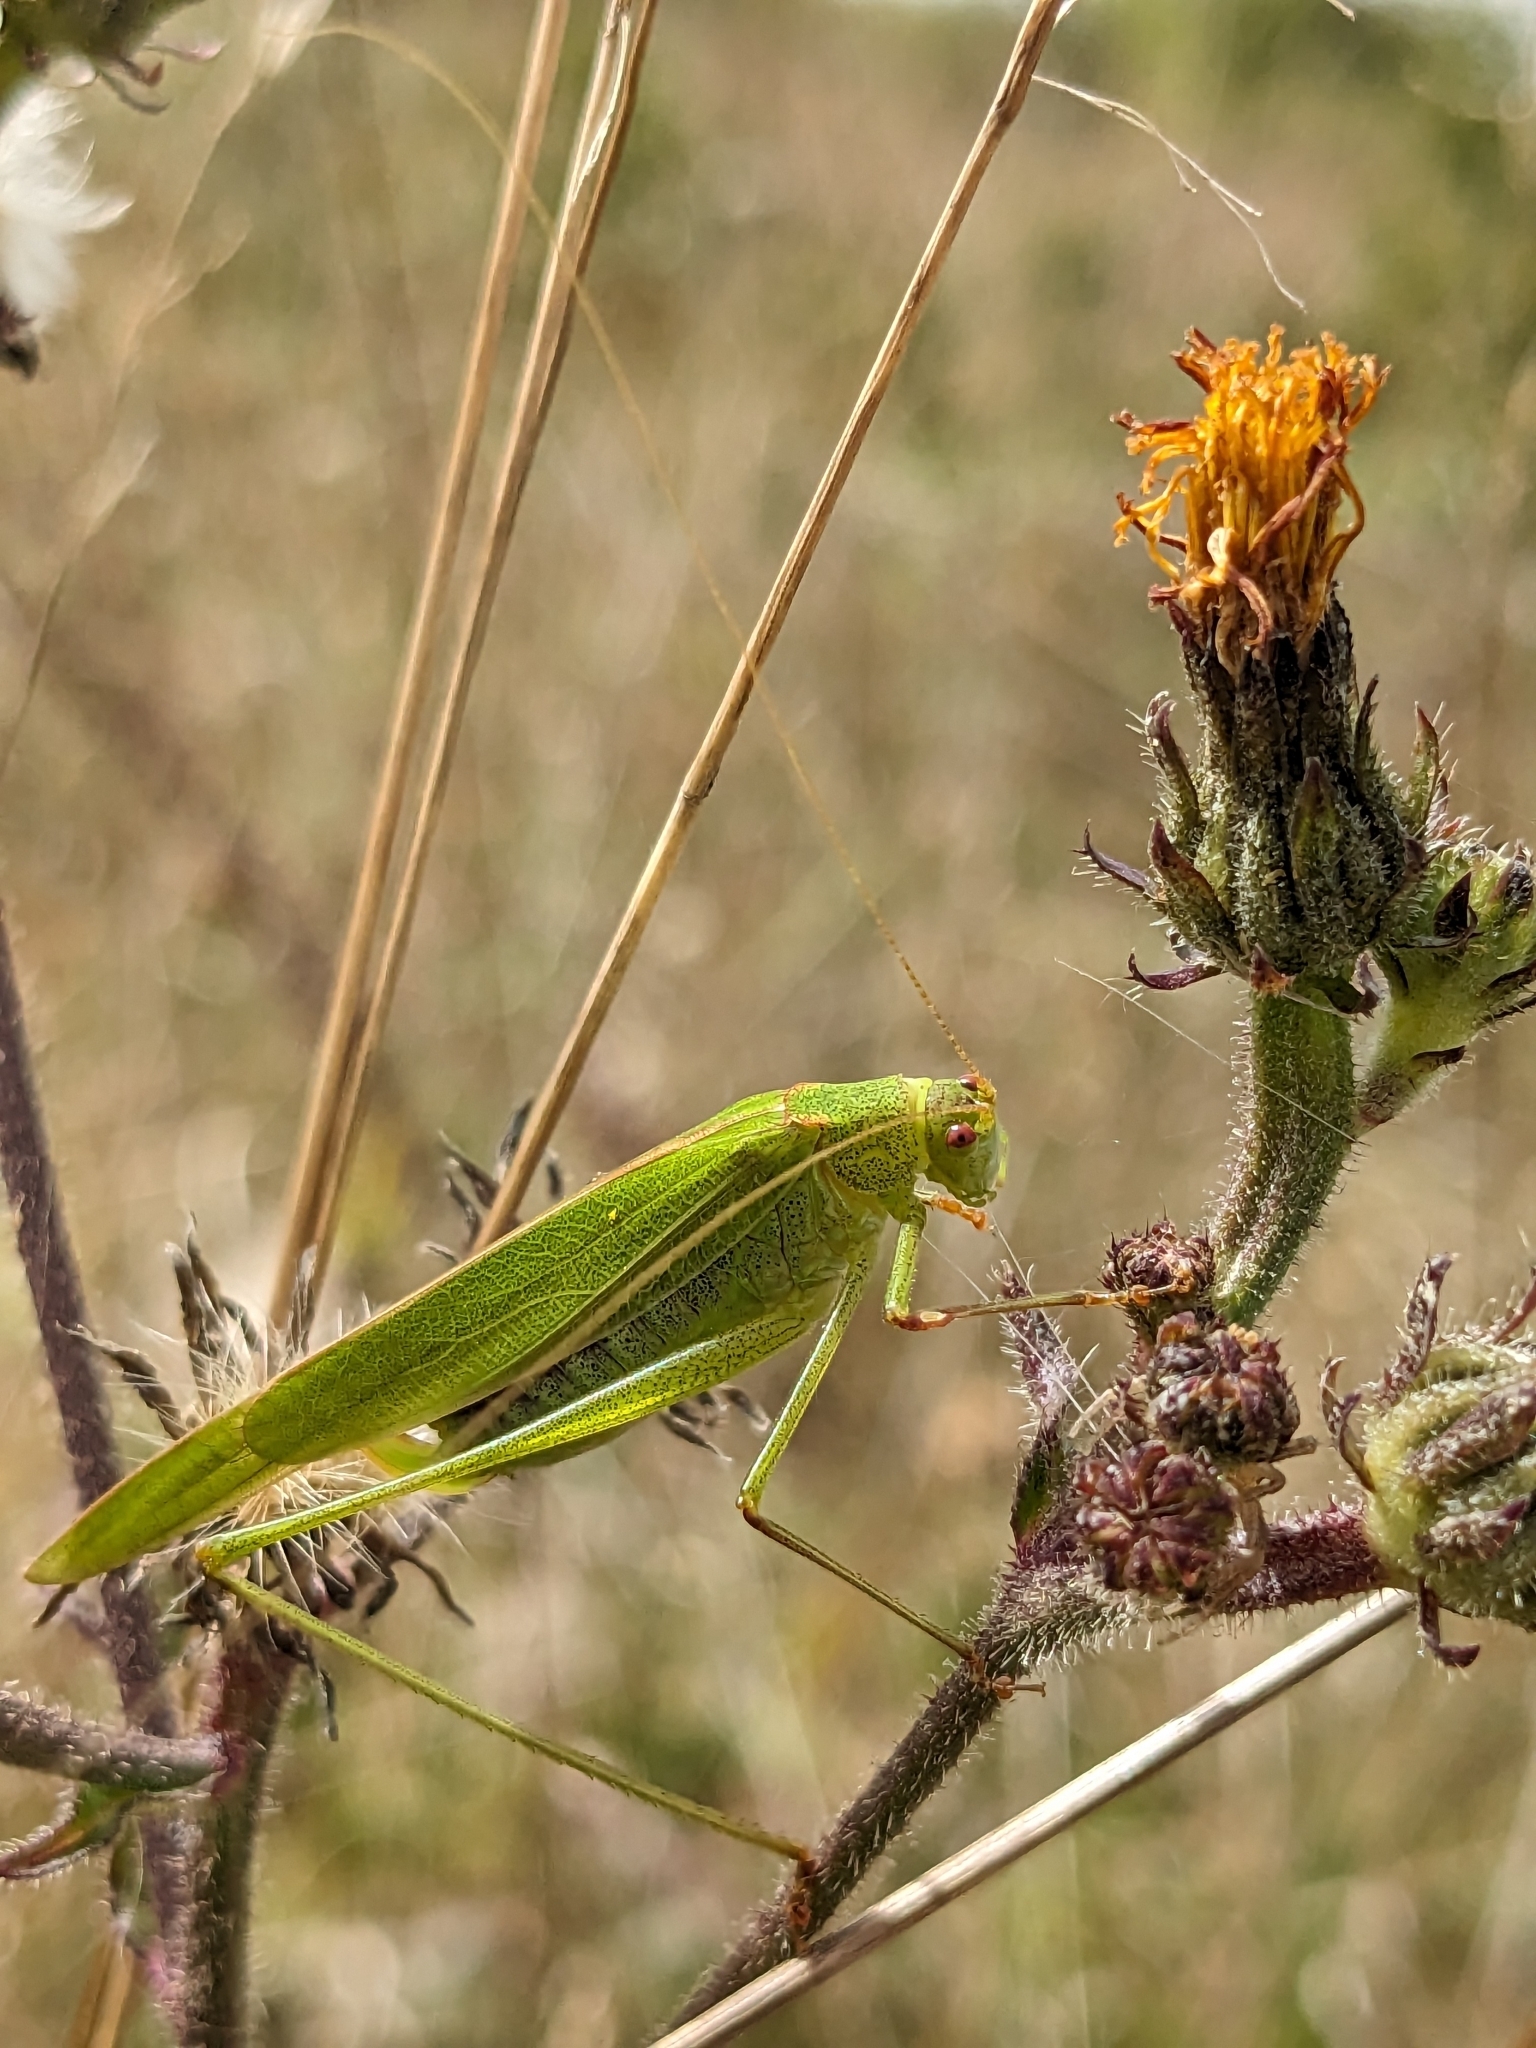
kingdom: Animalia
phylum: Arthropoda
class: Insecta
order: Orthoptera
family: Tettigoniidae
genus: Phaneroptera
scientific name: Phaneroptera falcata
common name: Sickle-bearing bush-cricket
